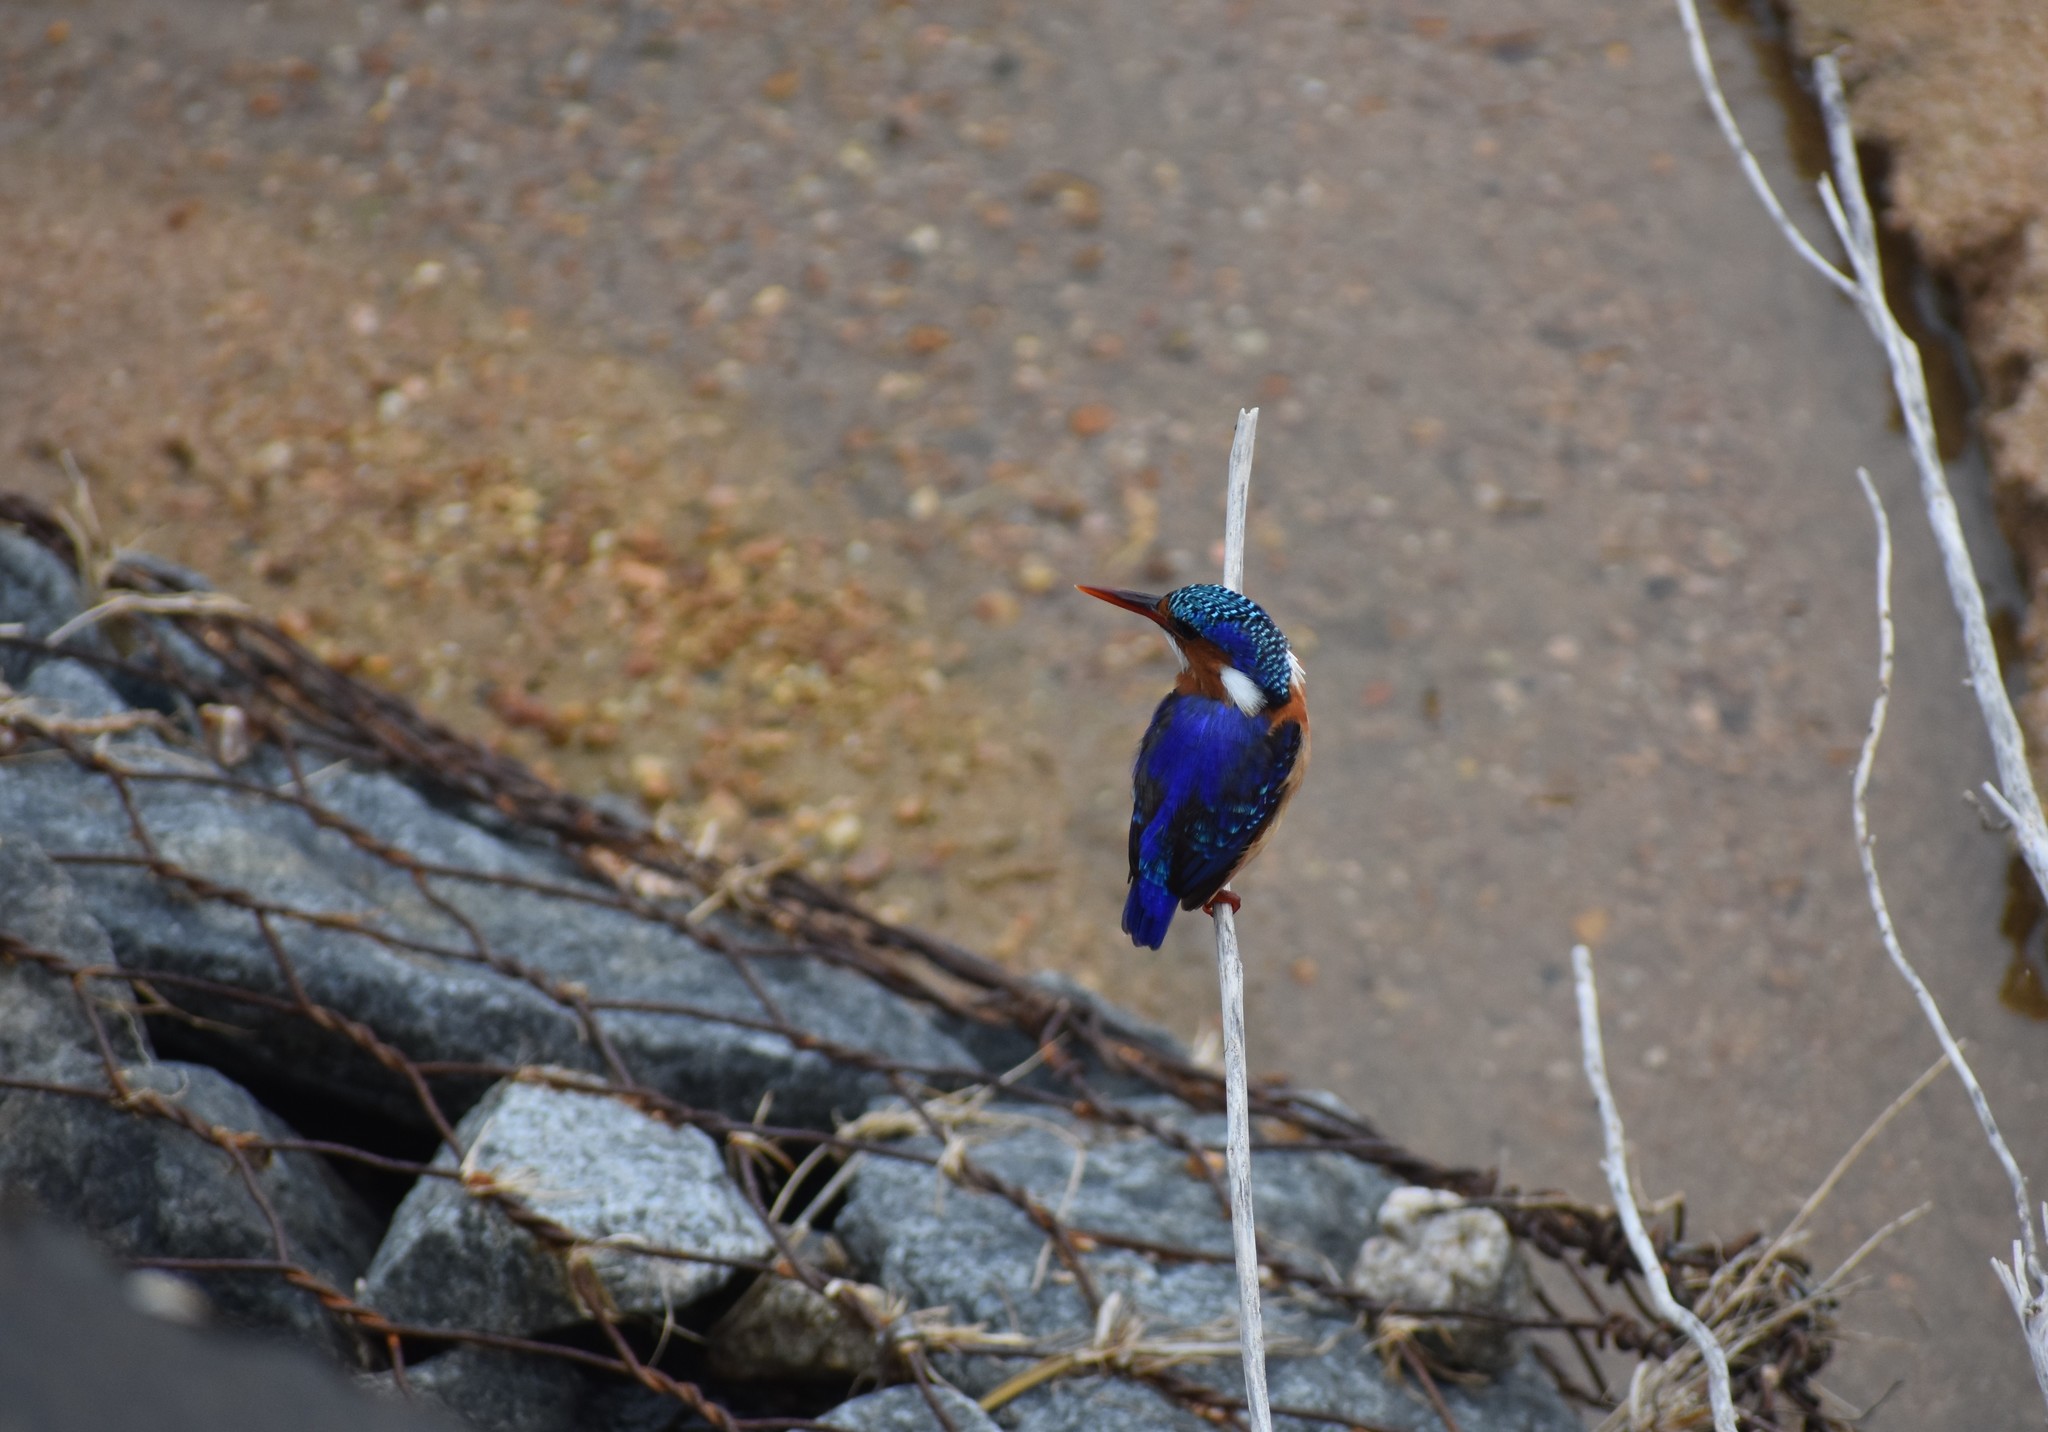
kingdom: Animalia
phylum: Chordata
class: Aves
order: Coraciiformes
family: Alcedinidae
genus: Corythornis
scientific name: Corythornis cristatus
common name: Malachite kingfisher
